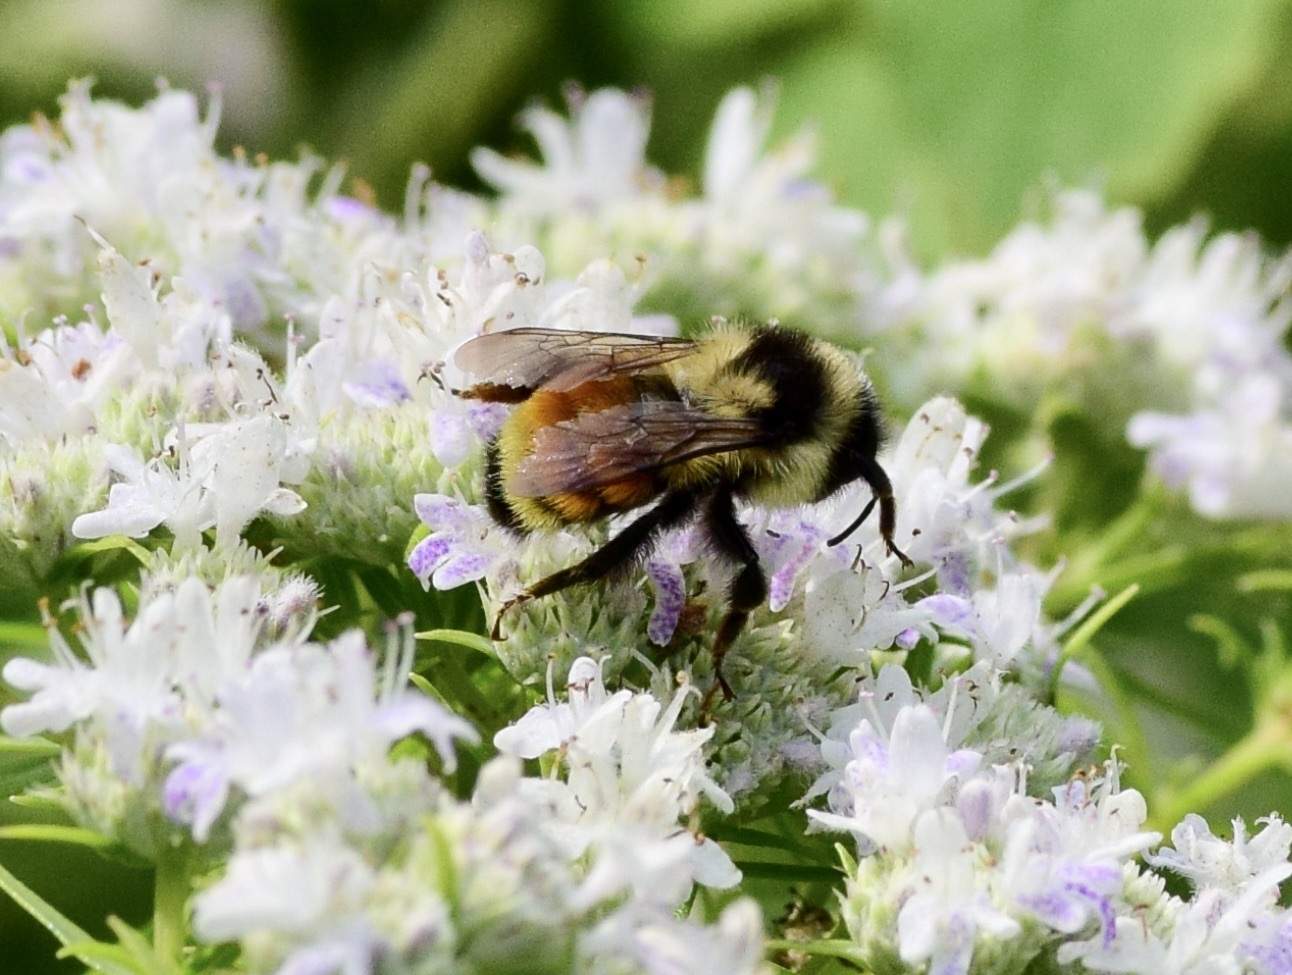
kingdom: Animalia
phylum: Arthropoda
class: Insecta
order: Hymenoptera
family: Apidae
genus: Bombus
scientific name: Bombus ternarius
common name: Tri-colored bumble bee
